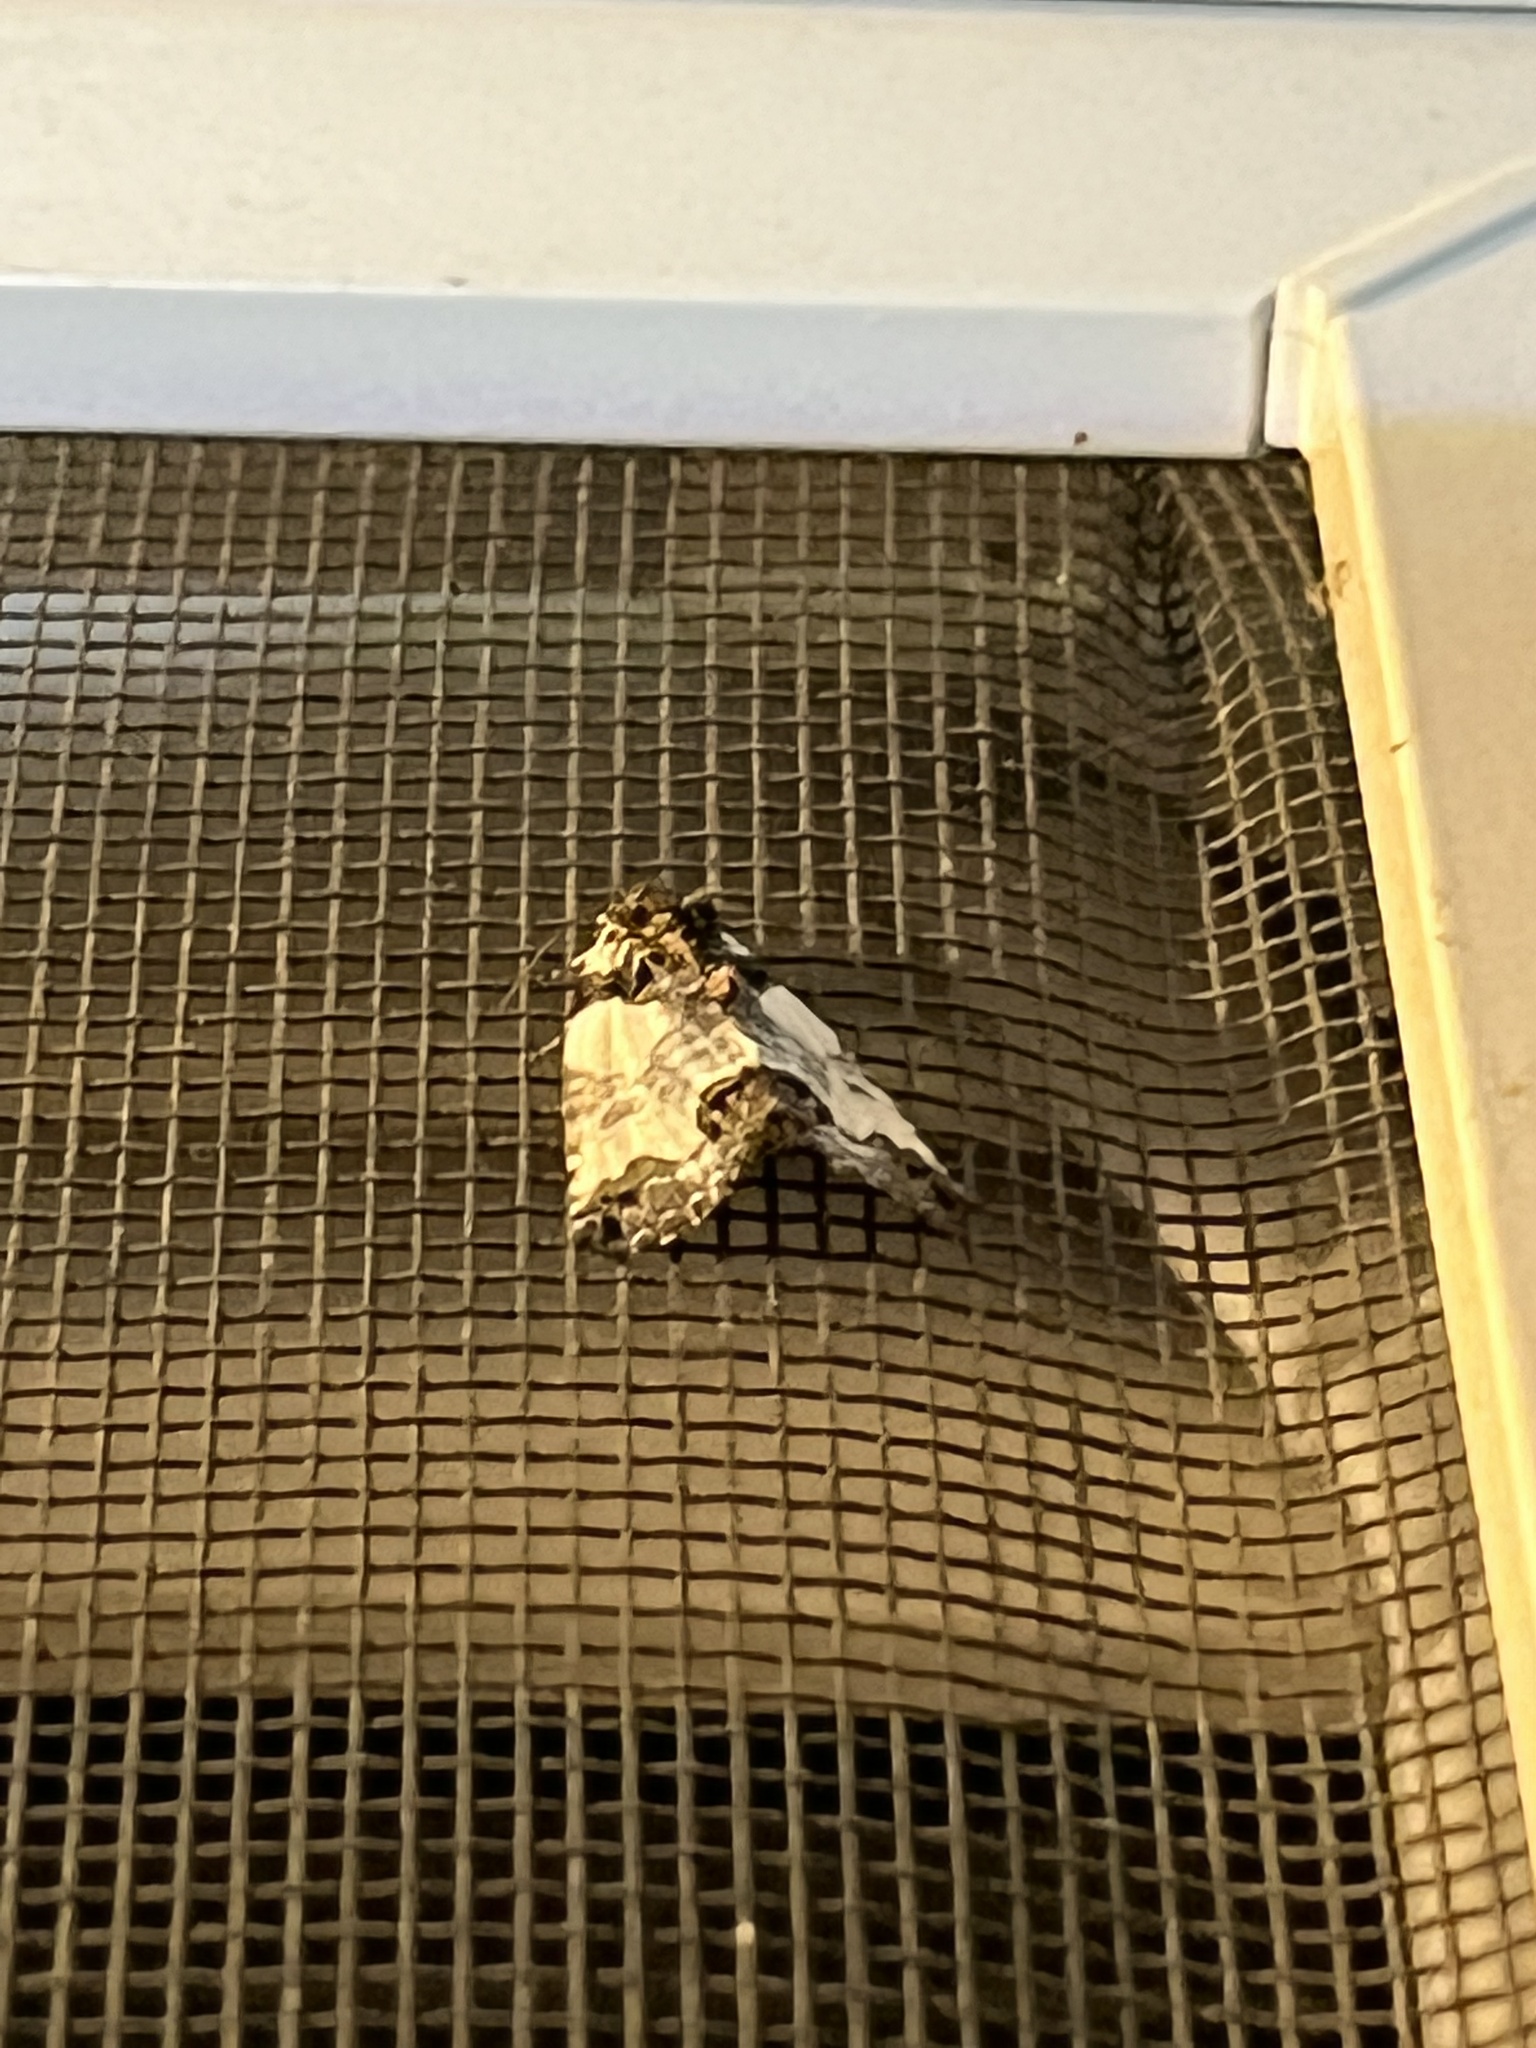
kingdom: Animalia
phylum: Arthropoda
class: Insecta
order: Lepidoptera
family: Noctuidae
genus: Cerma
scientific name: Cerma cerintha
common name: Tufted bird-dropping moth
